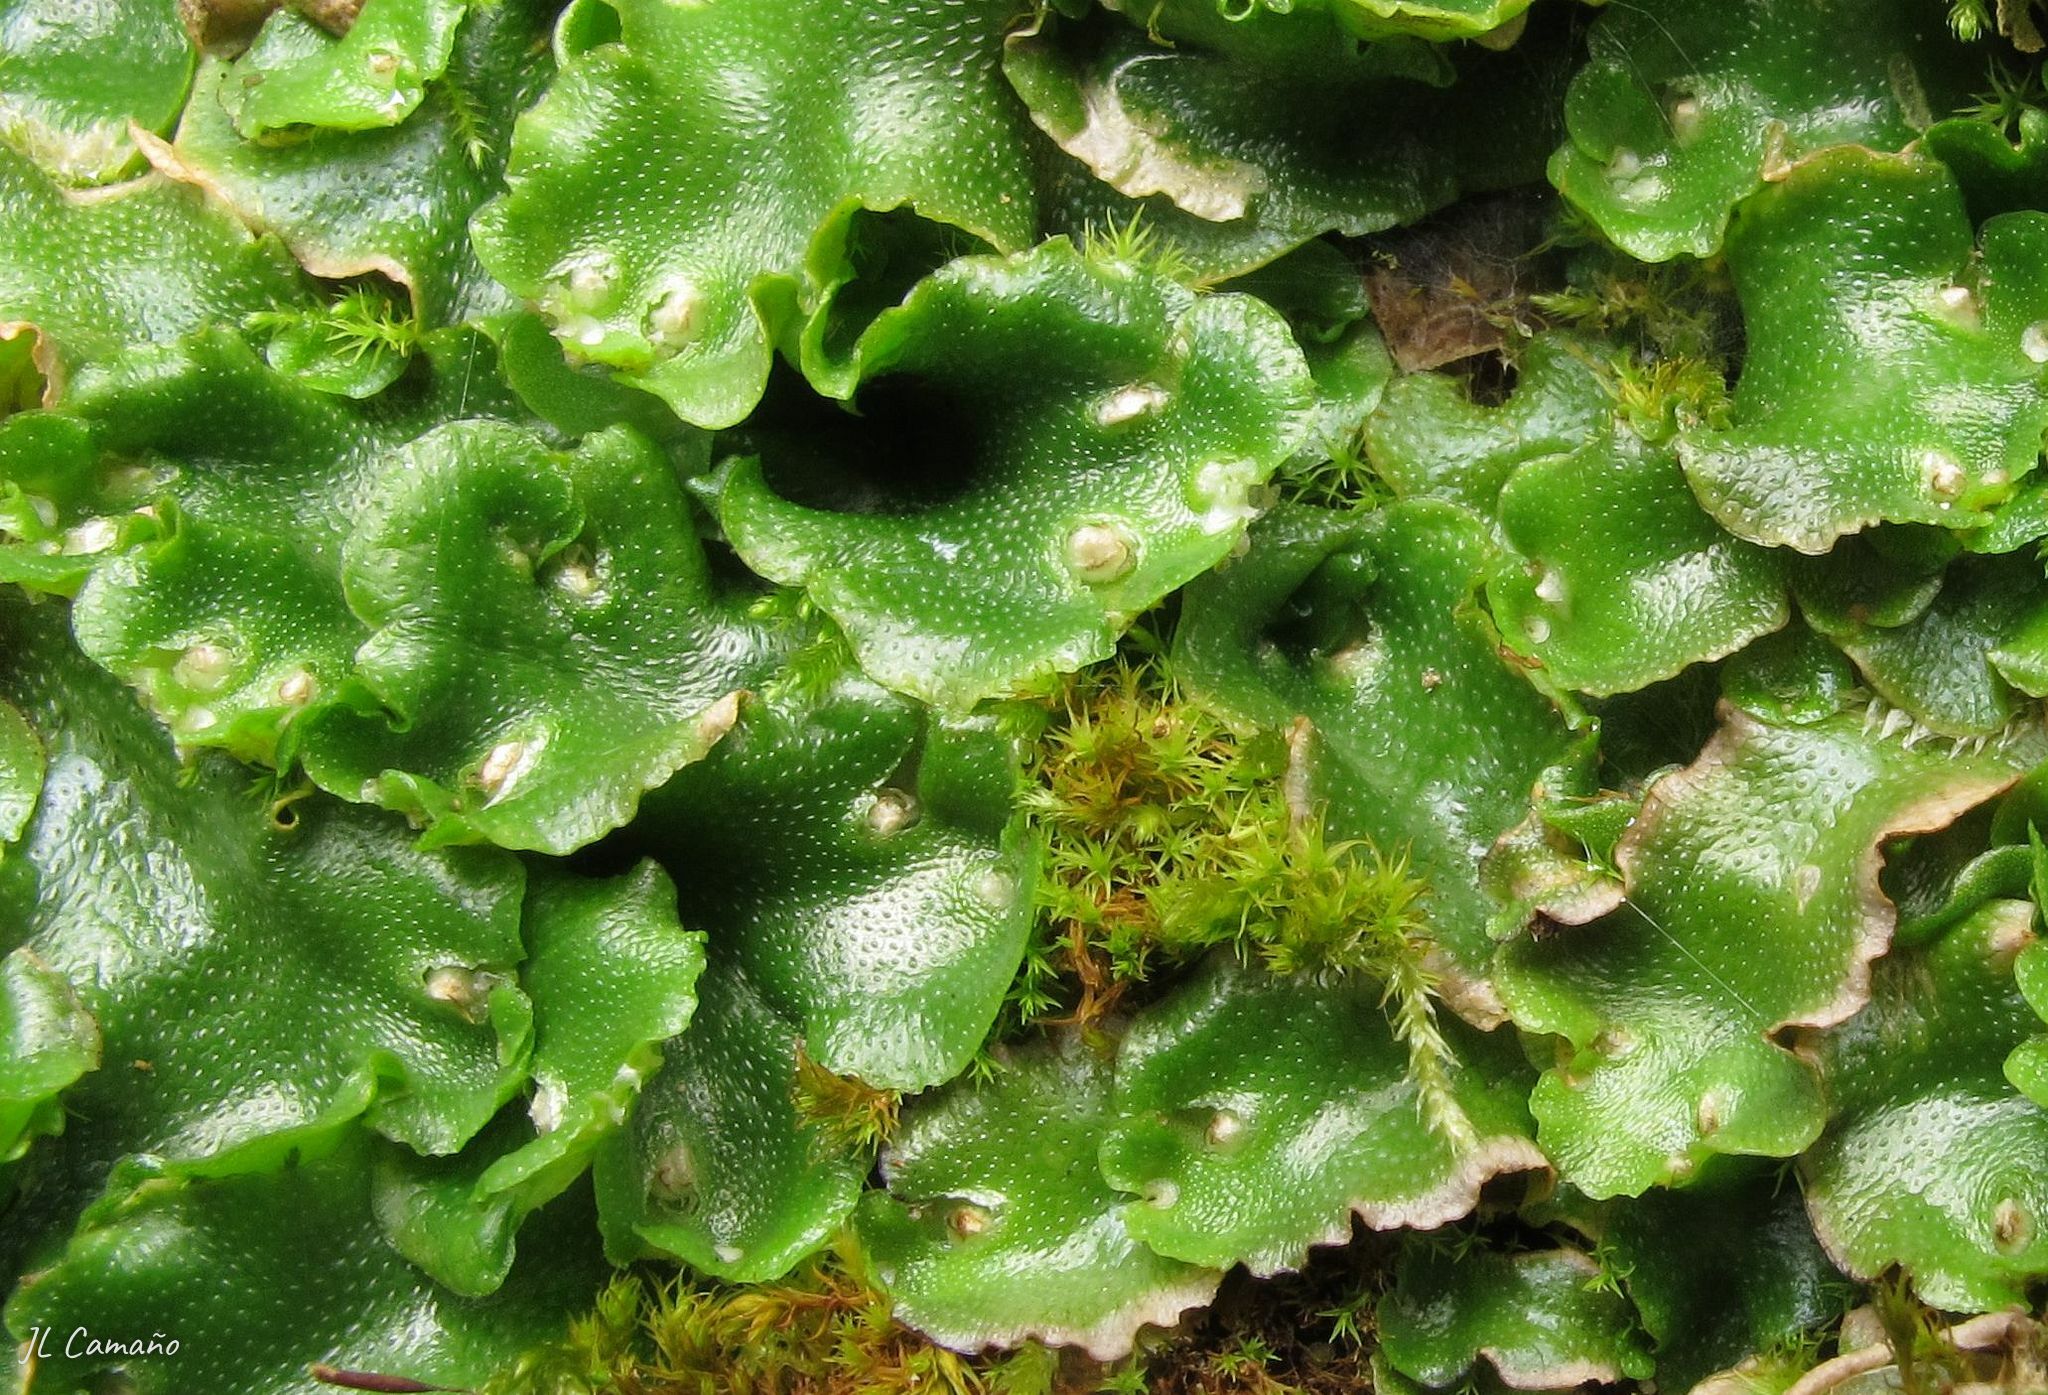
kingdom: Plantae
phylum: Marchantiophyta
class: Marchantiopsida
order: Lunulariales
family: Lunulariaceae
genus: Lunularia
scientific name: Lunularia cruciata
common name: Crescent-cup liverwort
